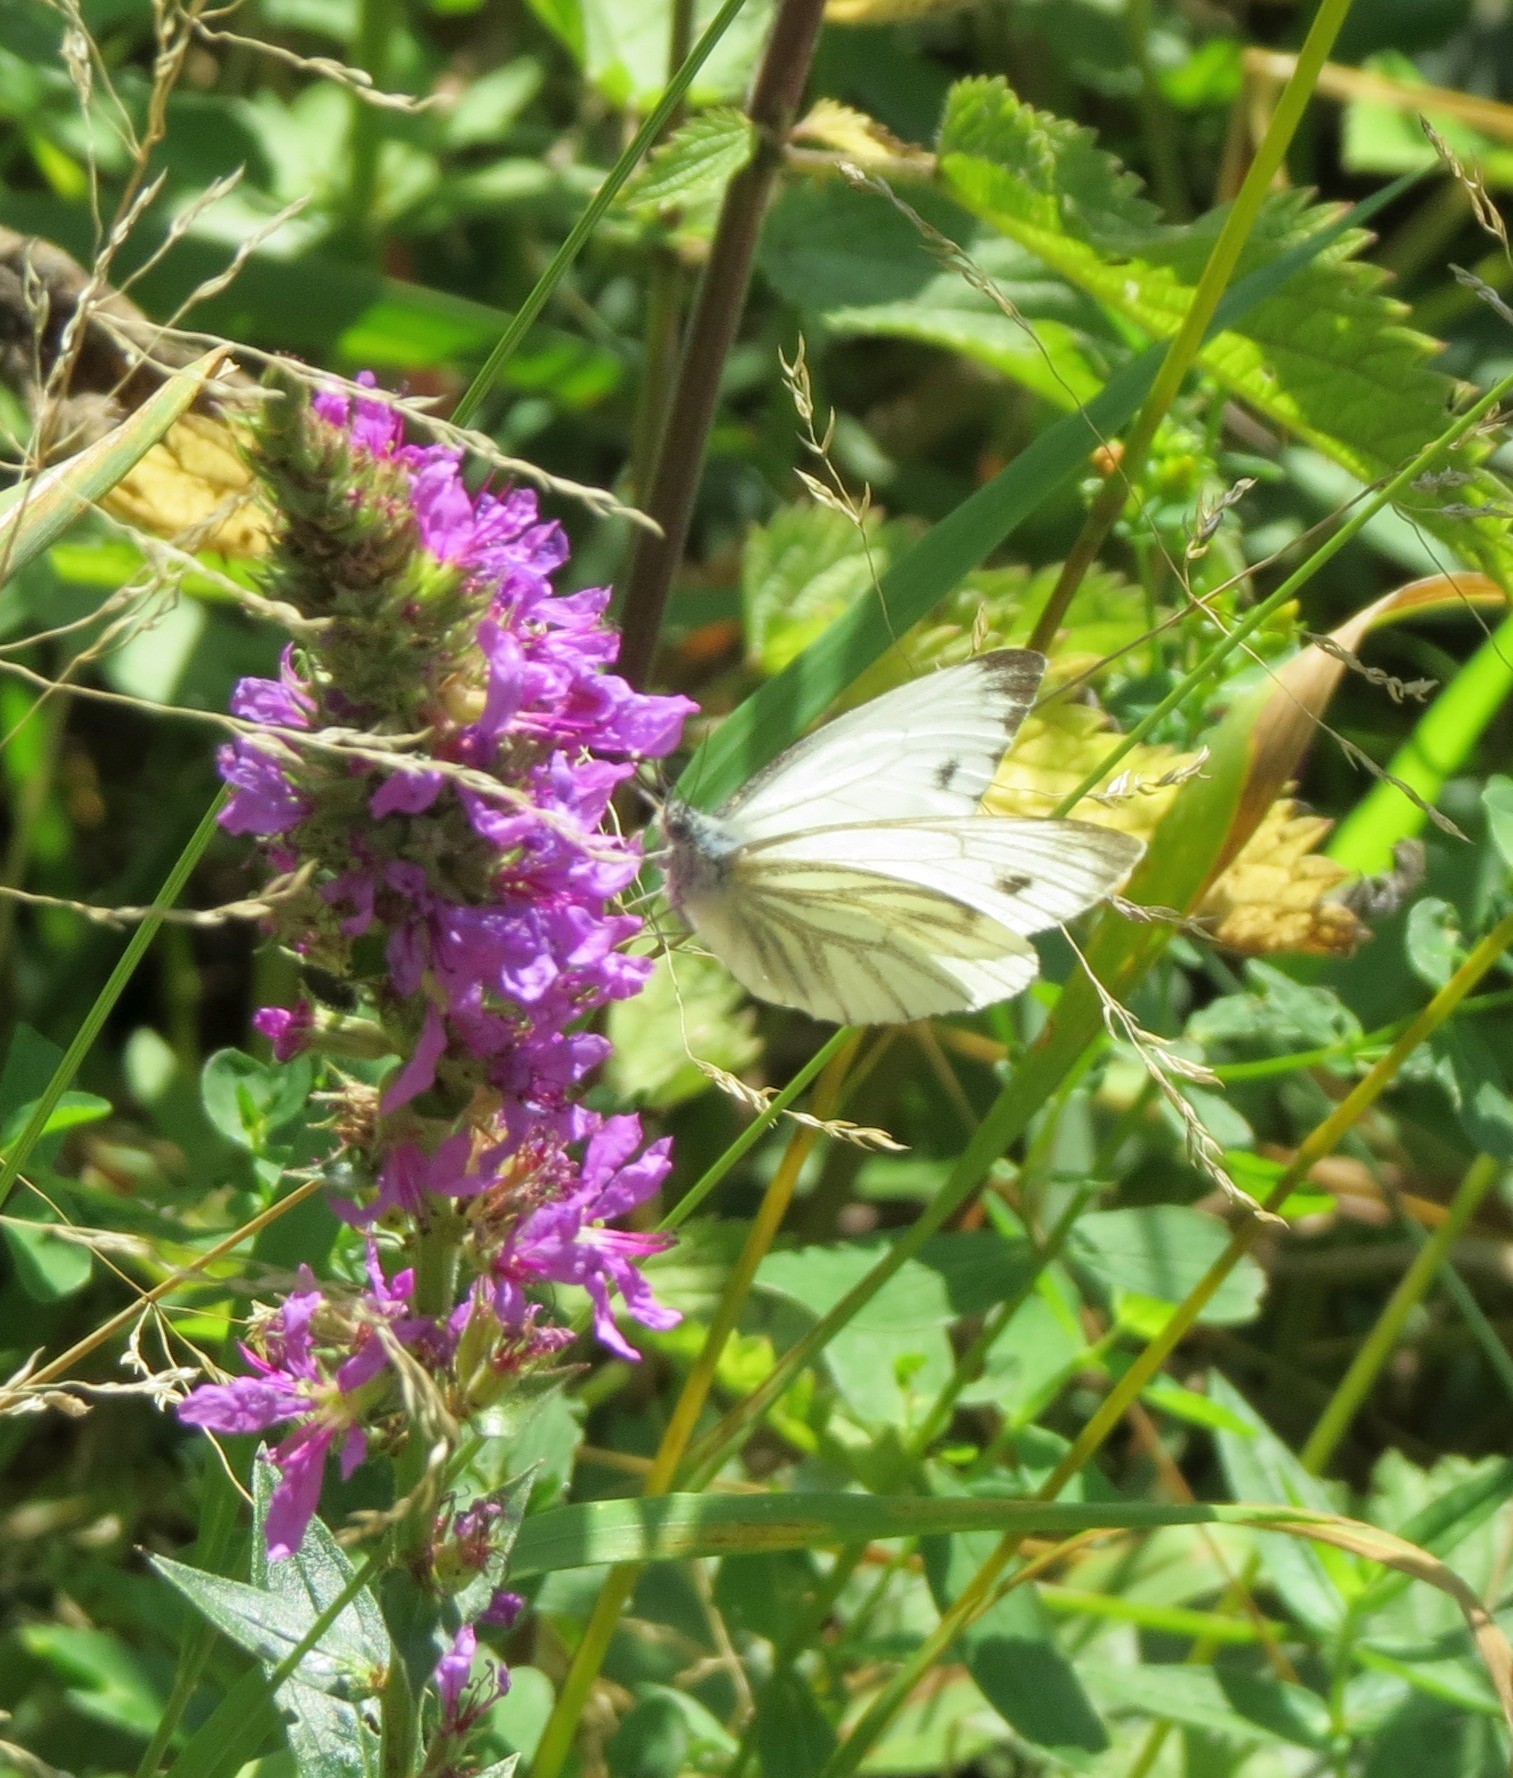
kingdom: Animalia
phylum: Arthropoda
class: Insecta
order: Lepidoptera
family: Pieridae
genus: Pieris
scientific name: Pieris napi
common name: Green-veined white
